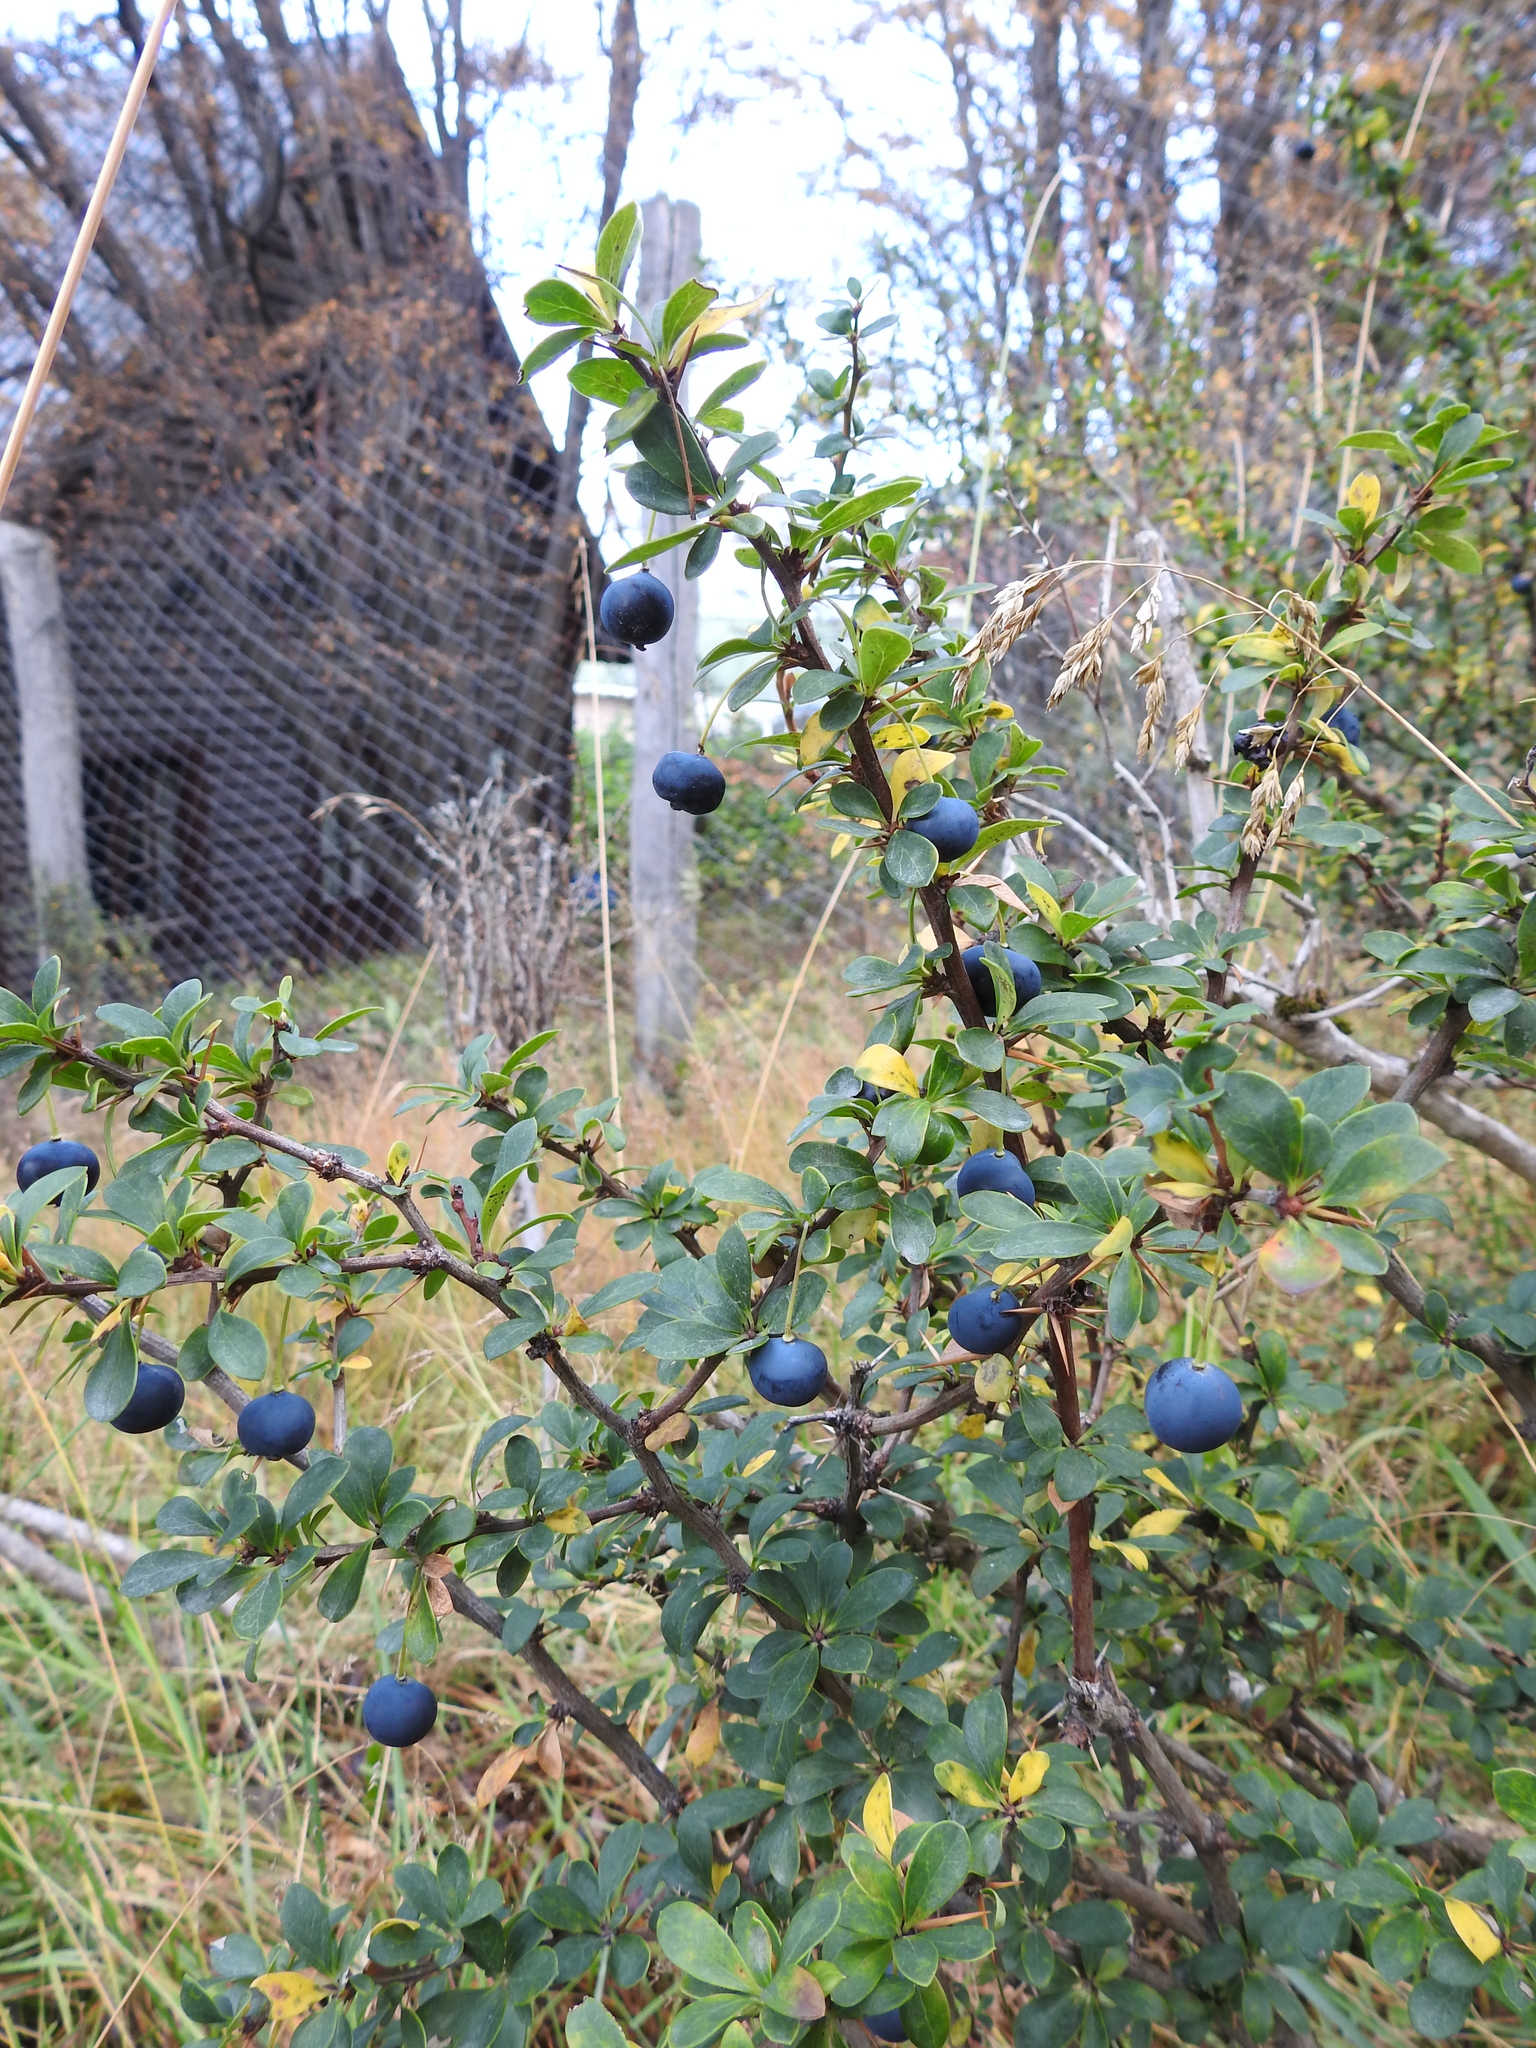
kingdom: Plantae
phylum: Tracheophyta
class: Magnoliopsida
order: Ranunculales
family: Berberidaceae
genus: Berberis
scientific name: Berberis microphylla
